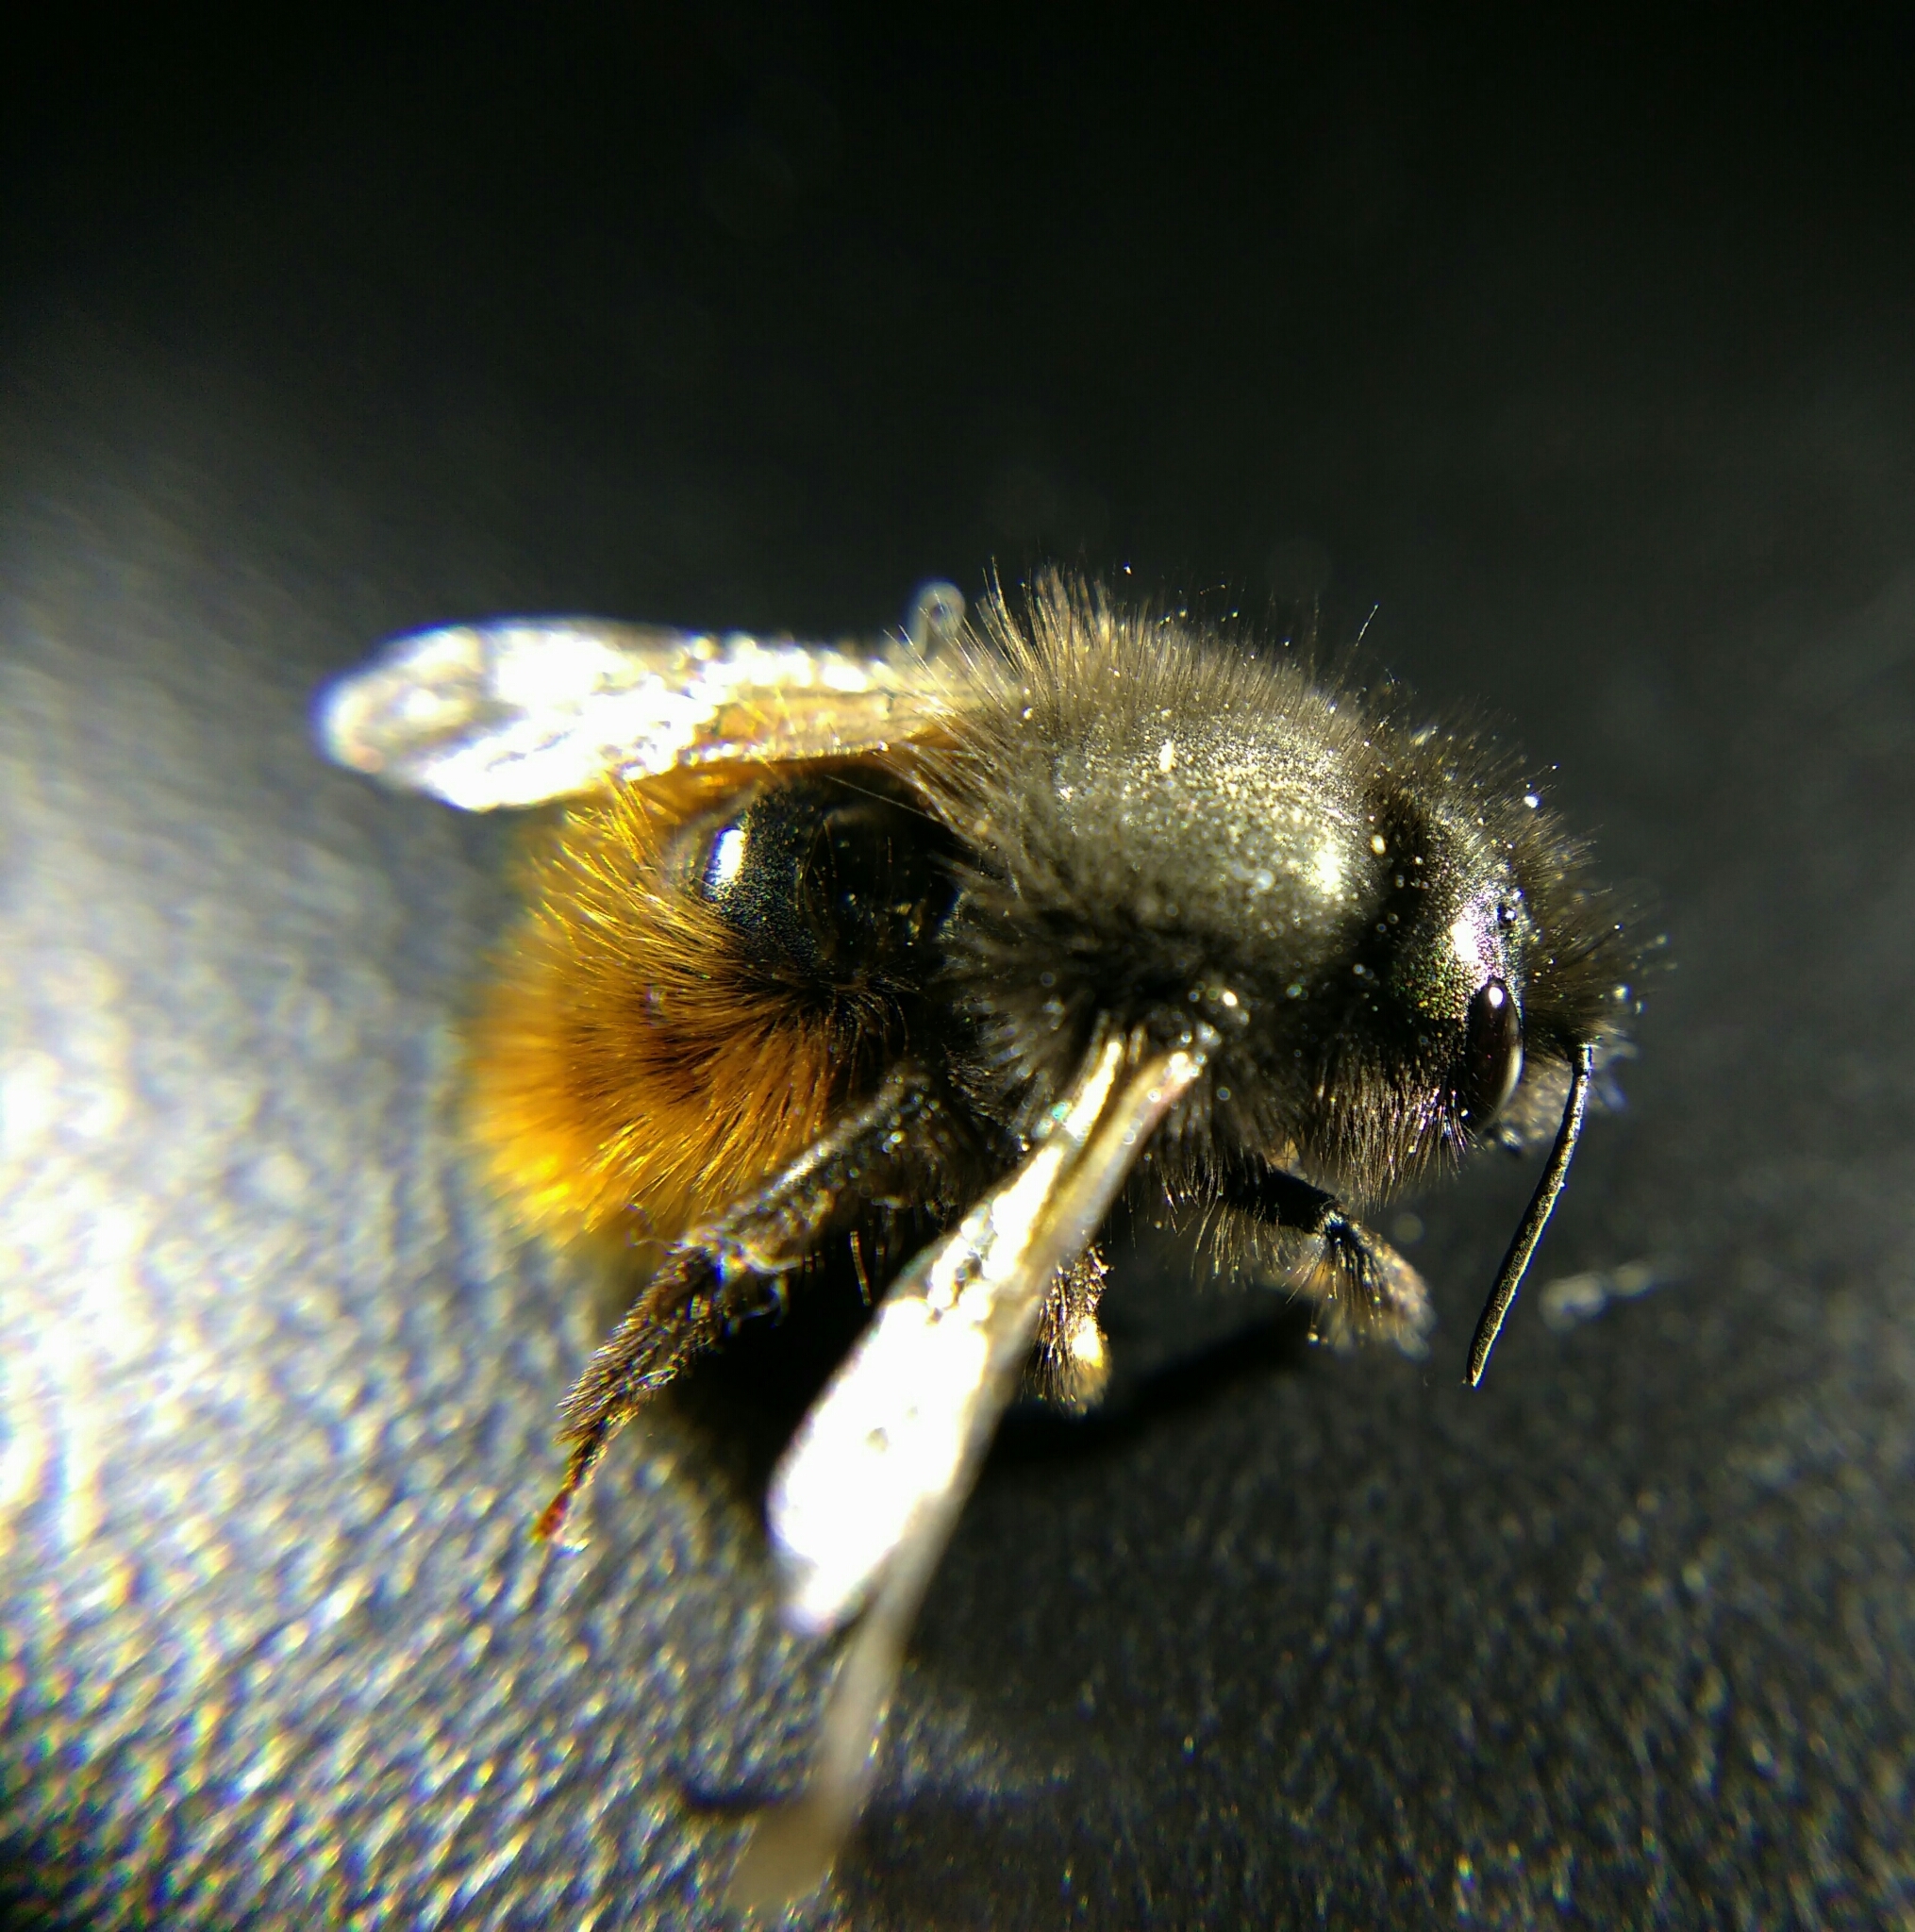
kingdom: Animalia
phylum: Arthropoda
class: Insecta
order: Hymenoptera
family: Megachilidae
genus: Osmia
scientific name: Osmia cornuta
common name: Mason bee
